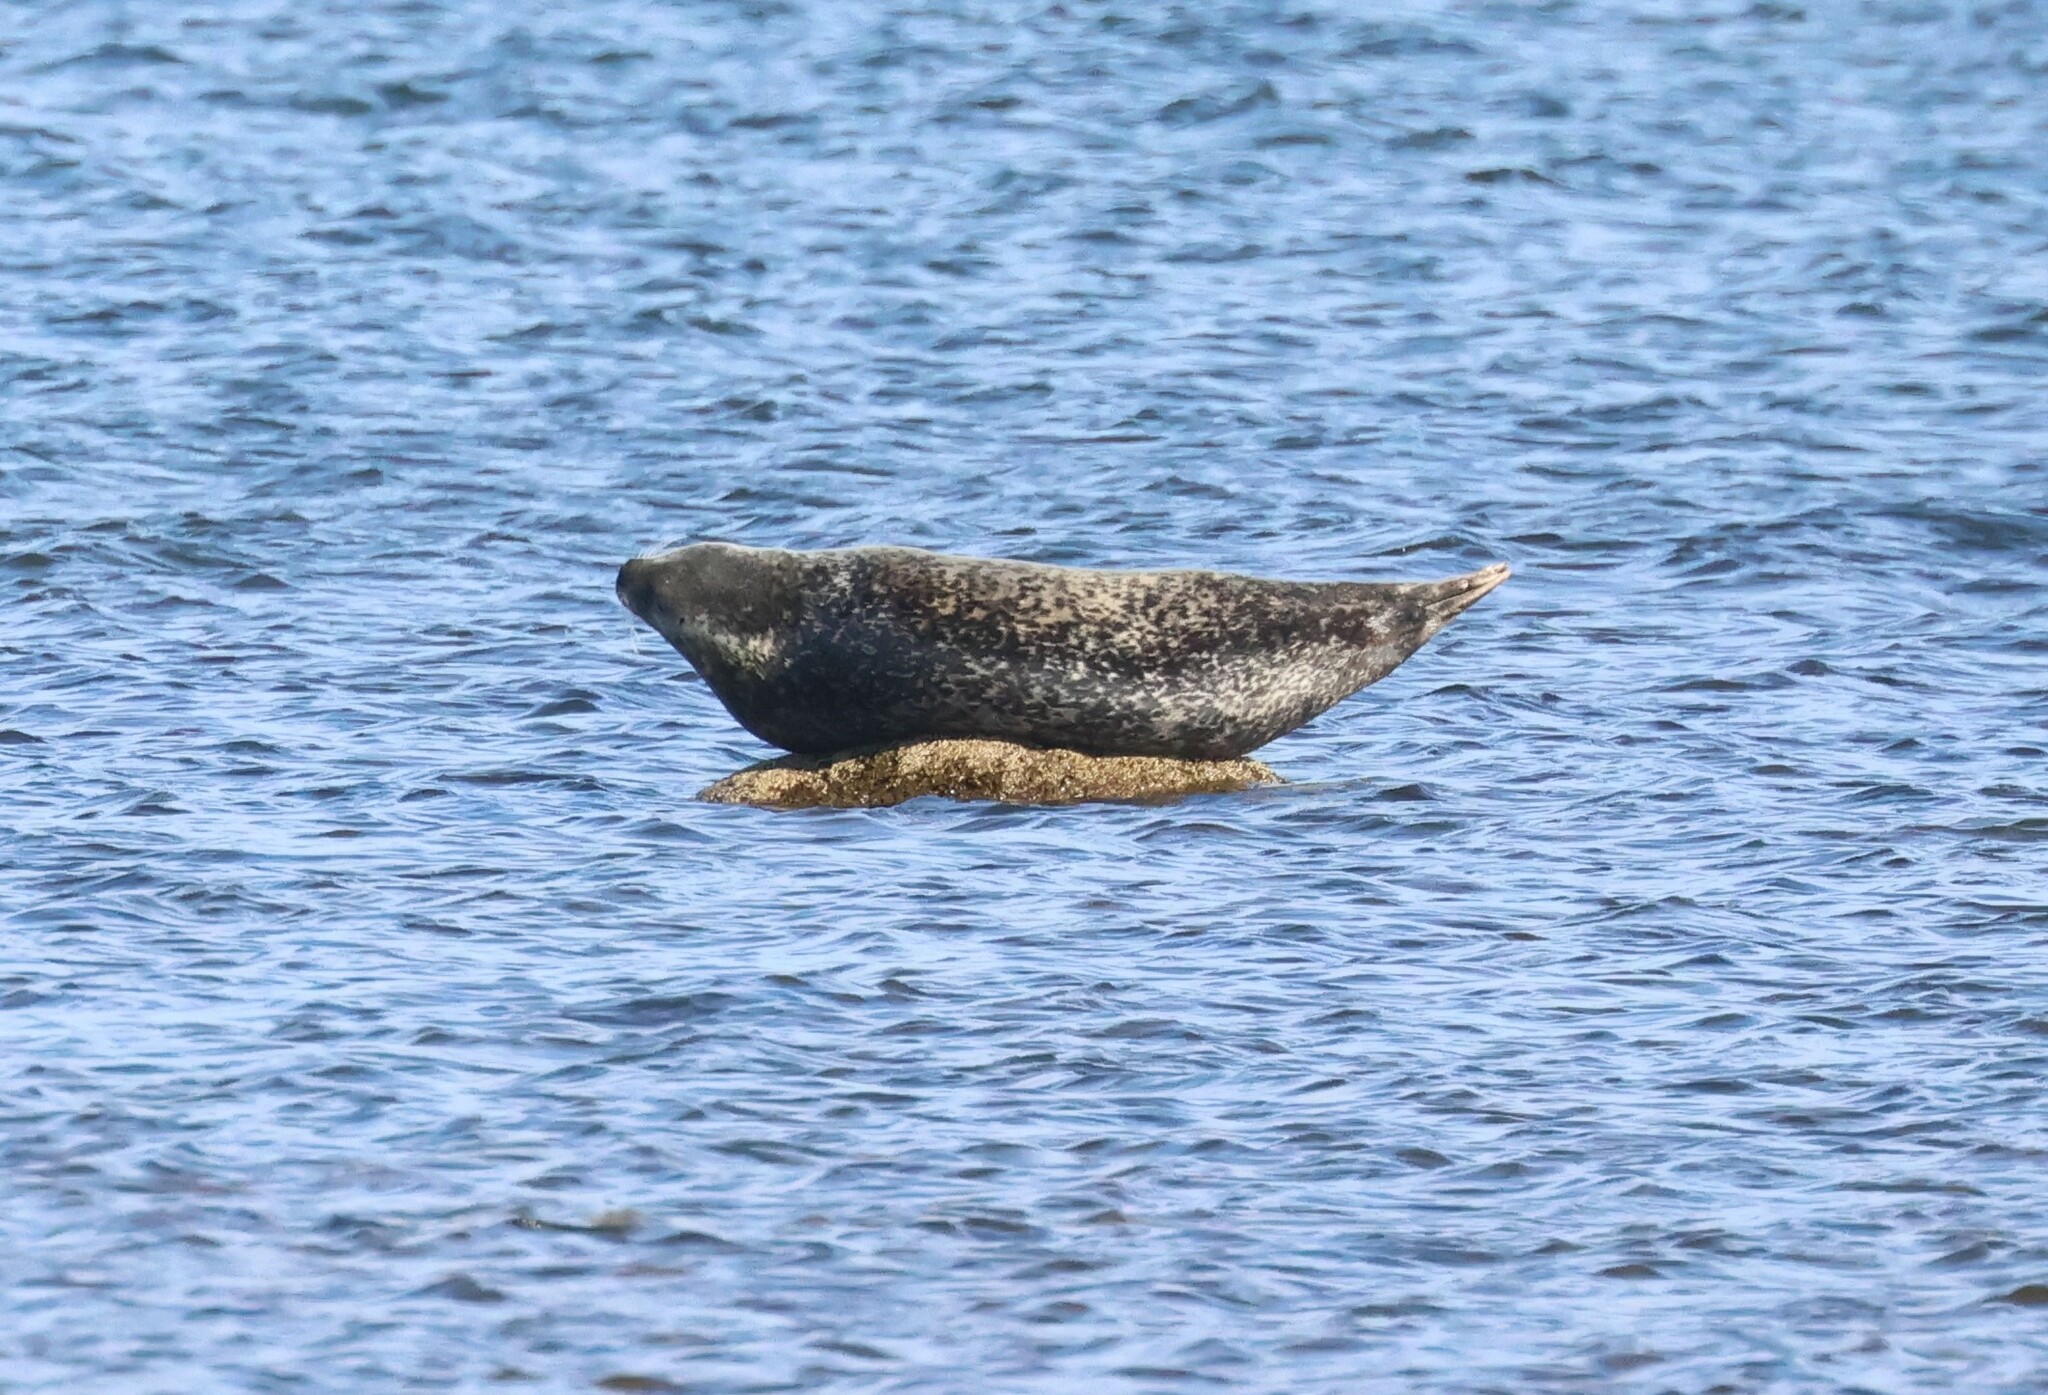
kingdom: Animalia
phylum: Chordata
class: Mammalia
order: Carnivora
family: Phocidae
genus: Phoca
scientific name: Phoca vitulina
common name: Harbor seal
